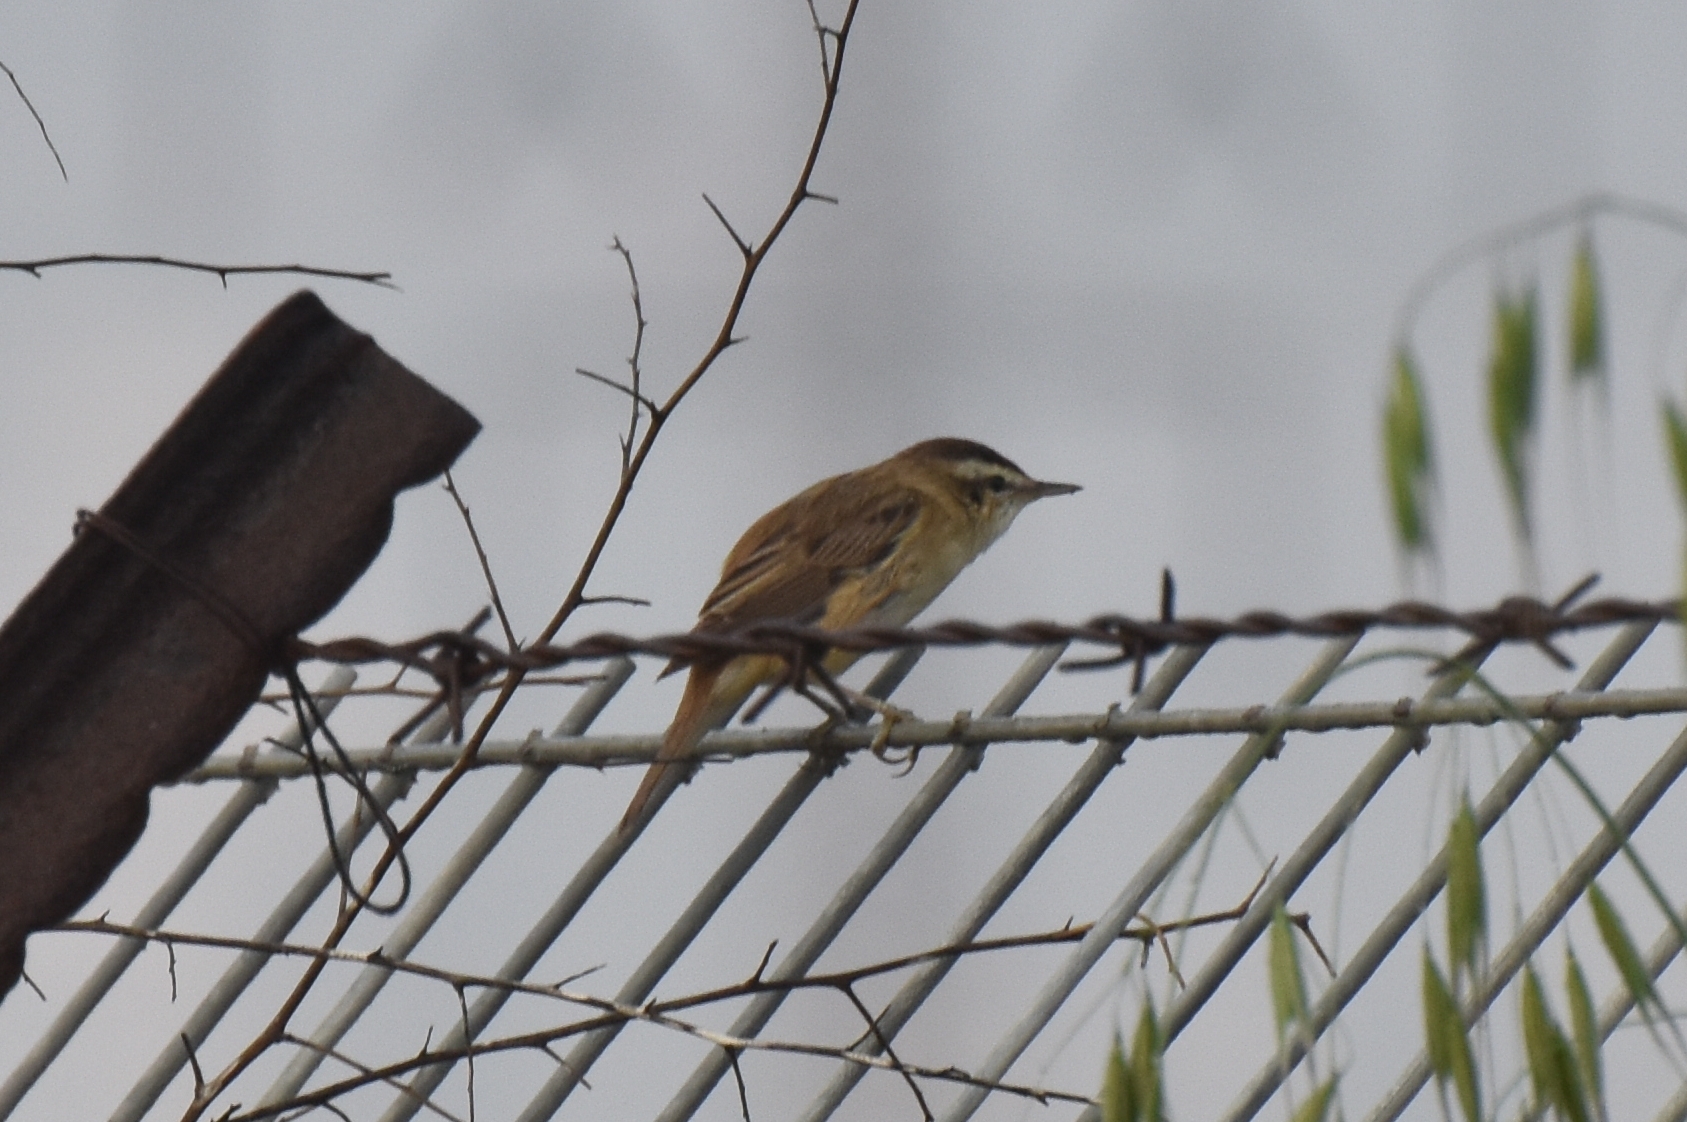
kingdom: Animalia
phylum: Chordata
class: Aves
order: Passeriformes
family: Acrocephalidae
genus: Acrocephalus
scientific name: Acrocephalus schoenobaenus
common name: Sedge warbler
